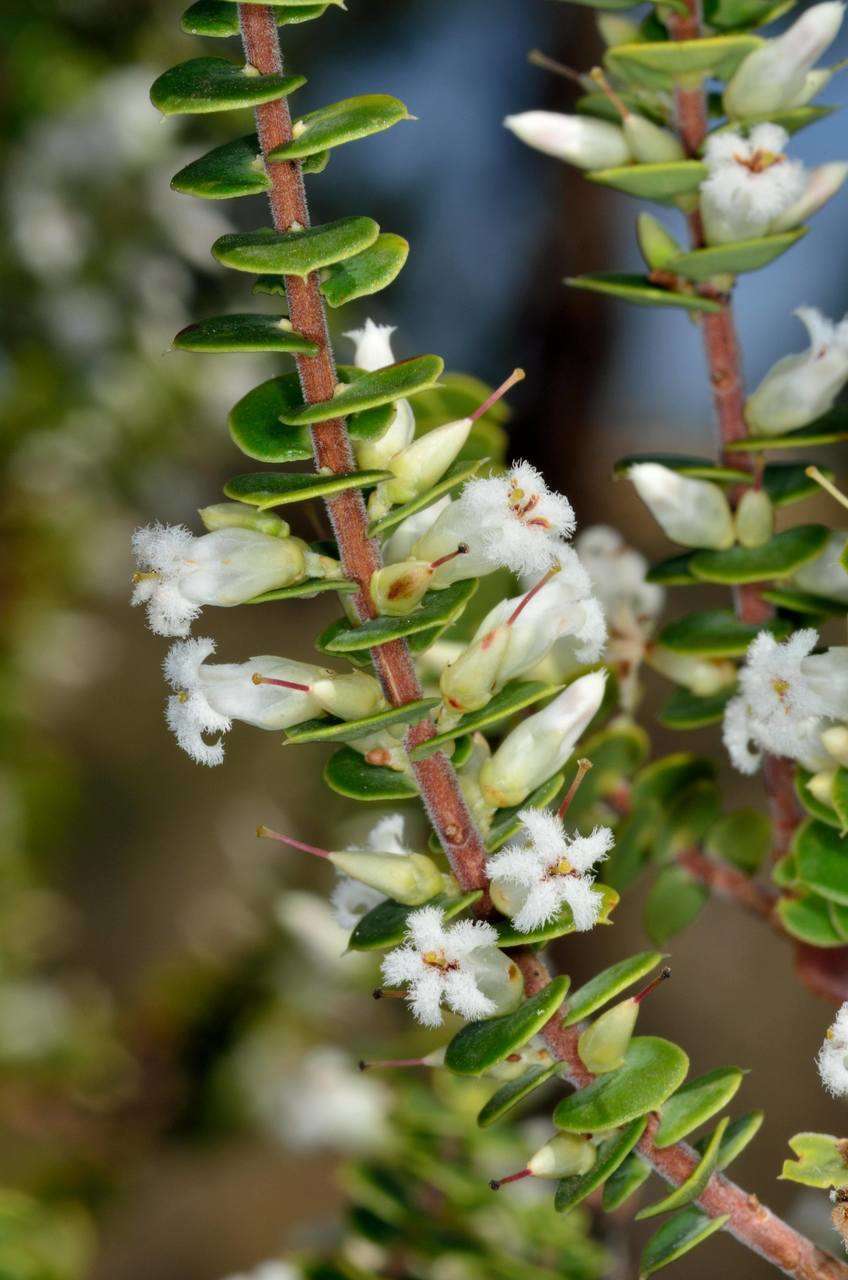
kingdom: Plantae
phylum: Tracheophyta
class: Magnoliopsida
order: Ericales
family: Ericaceae
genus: Styphelia
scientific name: Styphelia cordifolia
